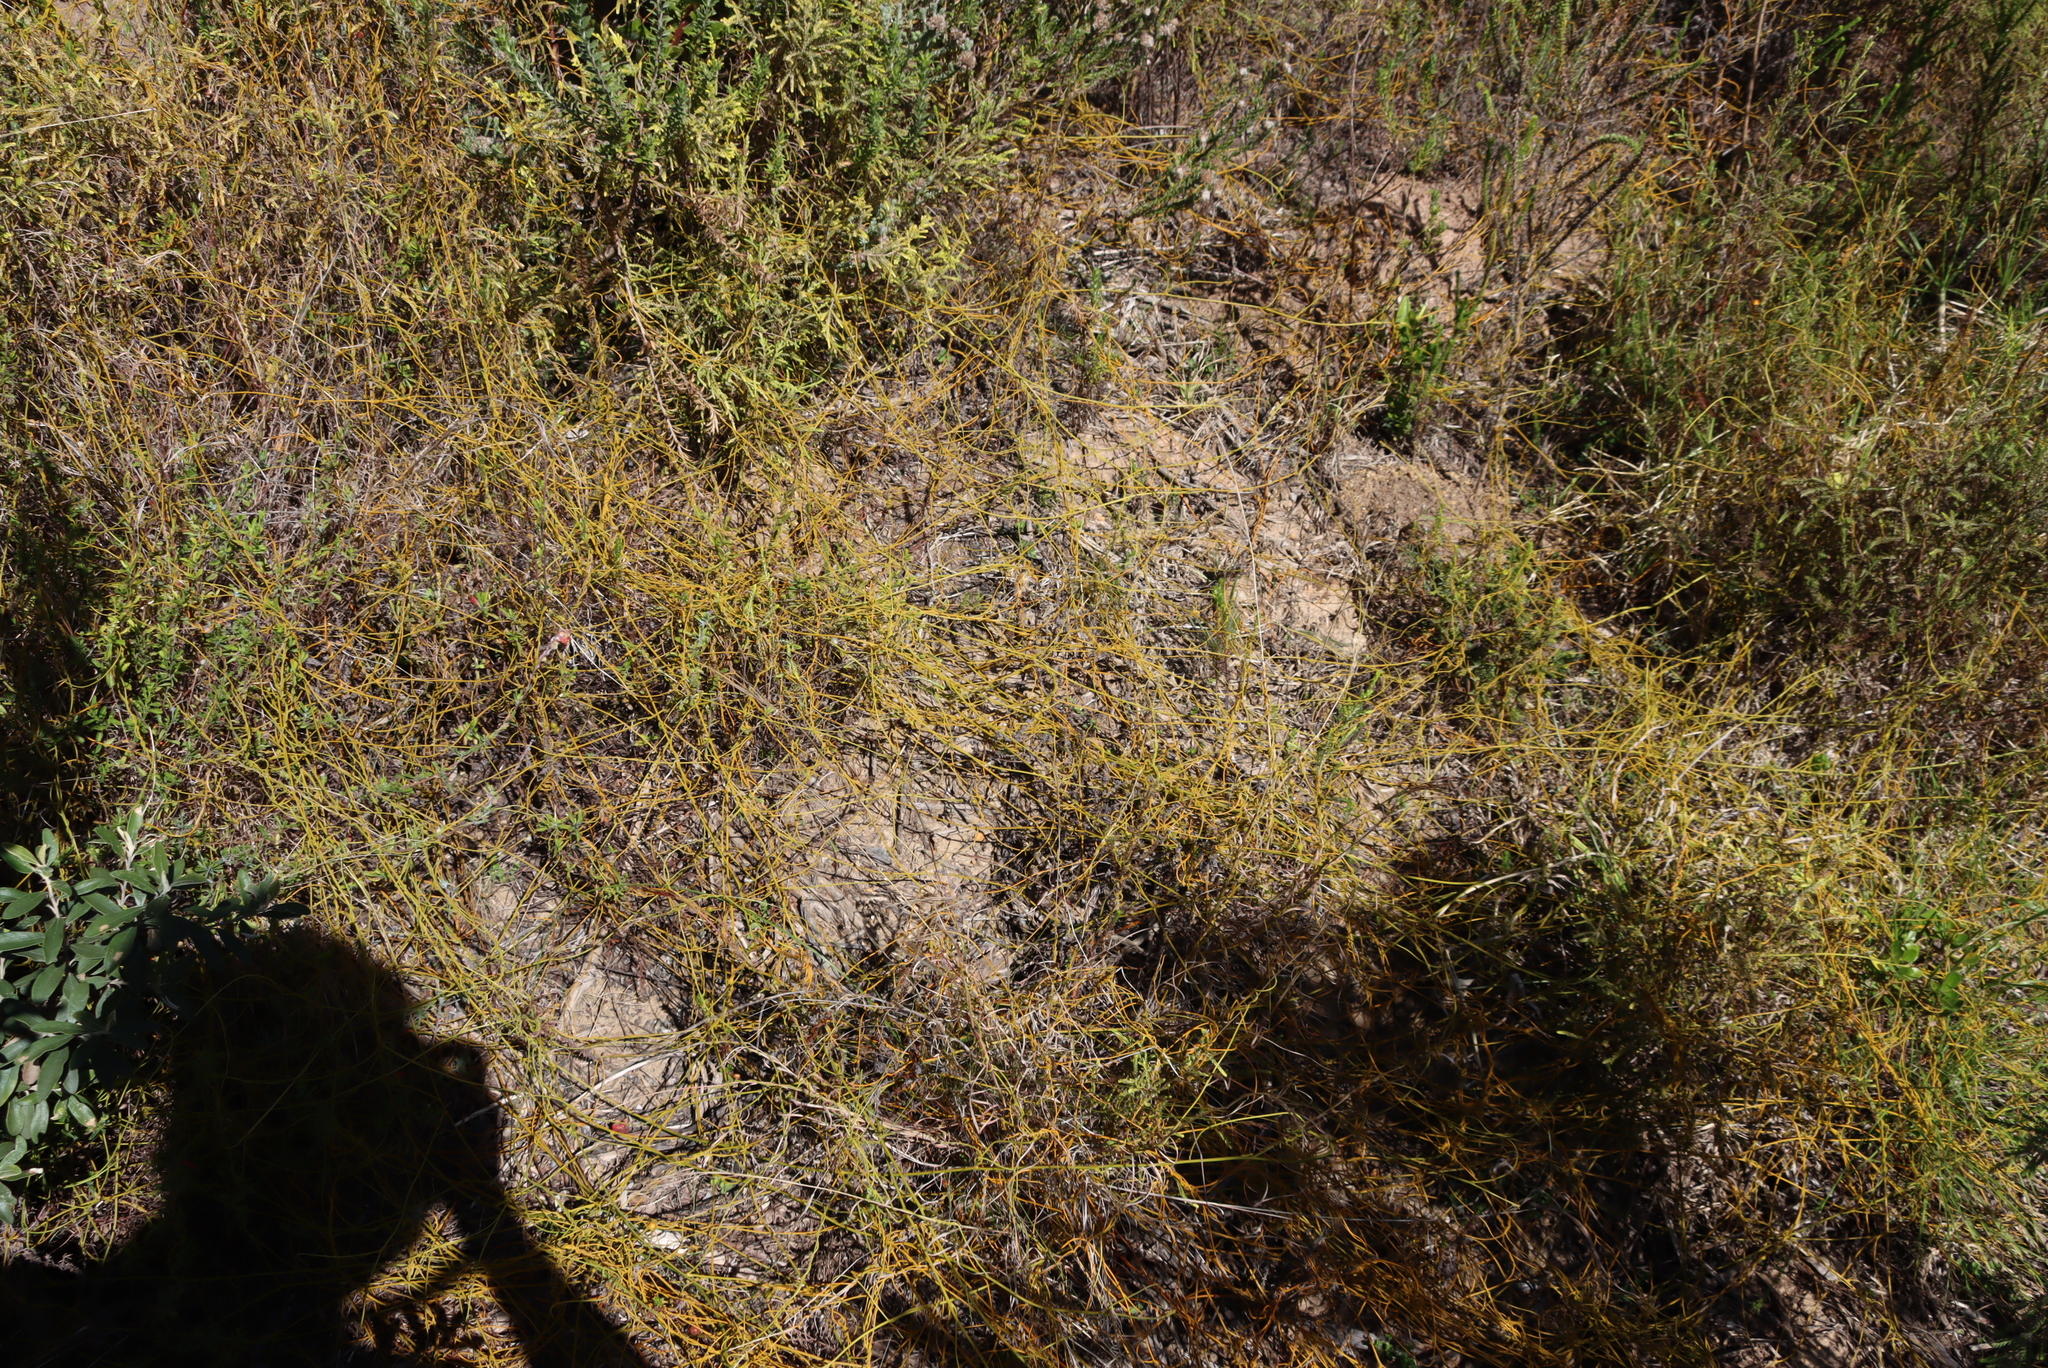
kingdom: Plantae
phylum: Tracheophyta
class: Magnoliopsida
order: Laurales
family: Lauraceae
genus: Cassytha
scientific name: Cassytha ciliolata
